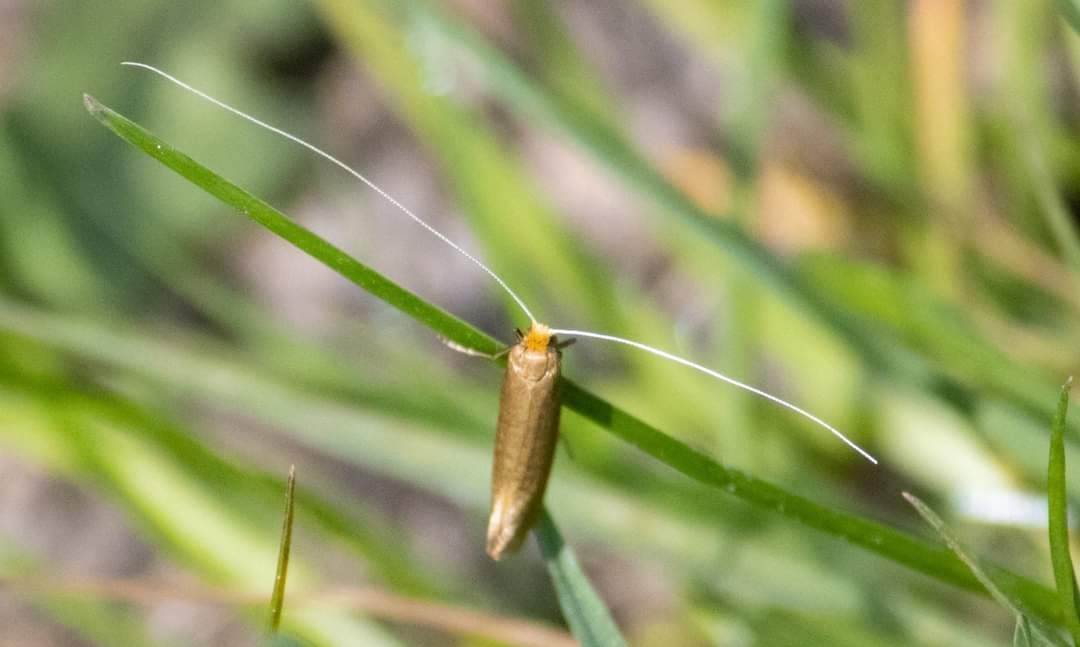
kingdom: Animalia
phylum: Arthropoda
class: Insecta
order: Lepidoptera
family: Adelidae
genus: Nematopogon
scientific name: Nematopogon swammerdamella
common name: Large long-horn
